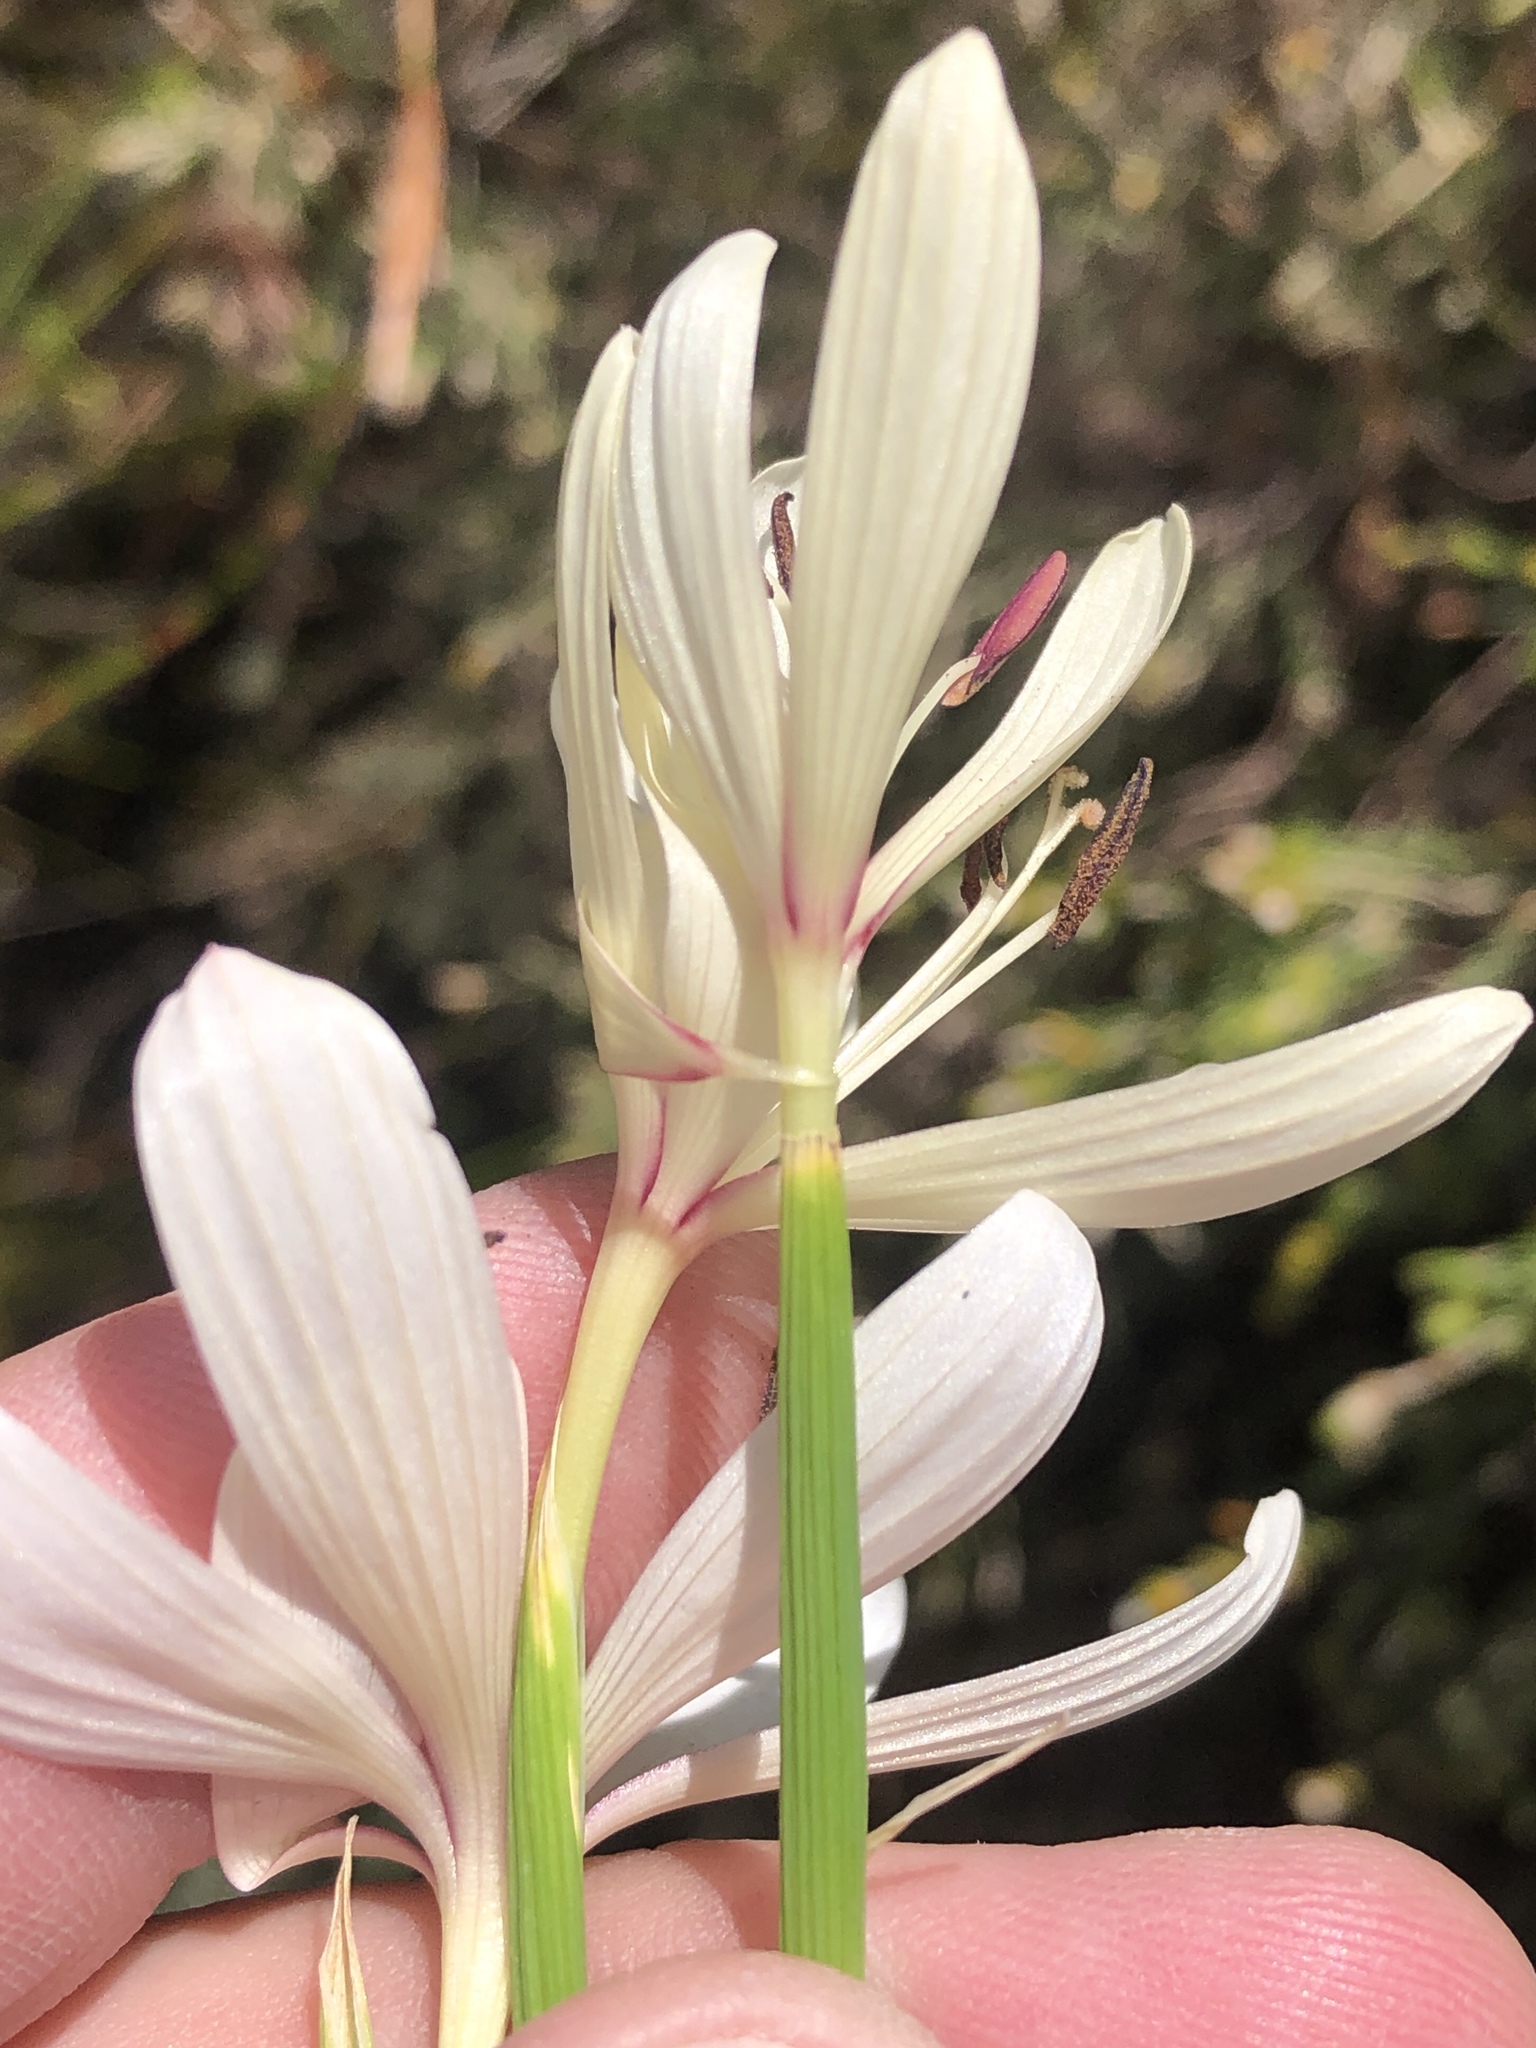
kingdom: Plantae
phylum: Tracheophyta
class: Liliopsida
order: Asparagales
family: Iridaceae
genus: Geissorhiza
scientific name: Geissorhiza confusa
